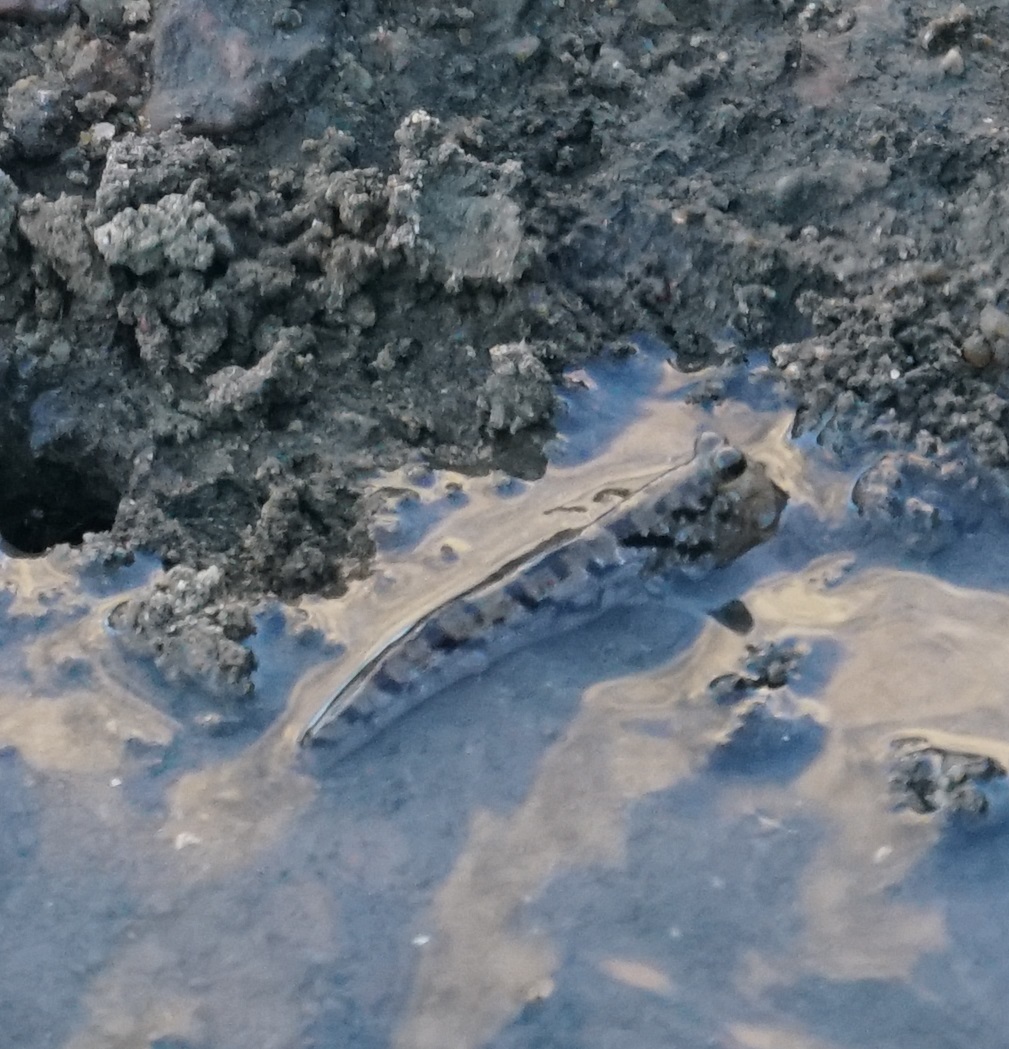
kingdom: Animalia
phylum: Chordata
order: Perciformes
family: Gobiidae
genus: Periophthalmus
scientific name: Periophthalmus argentilineatus
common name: Barred mudskipper
